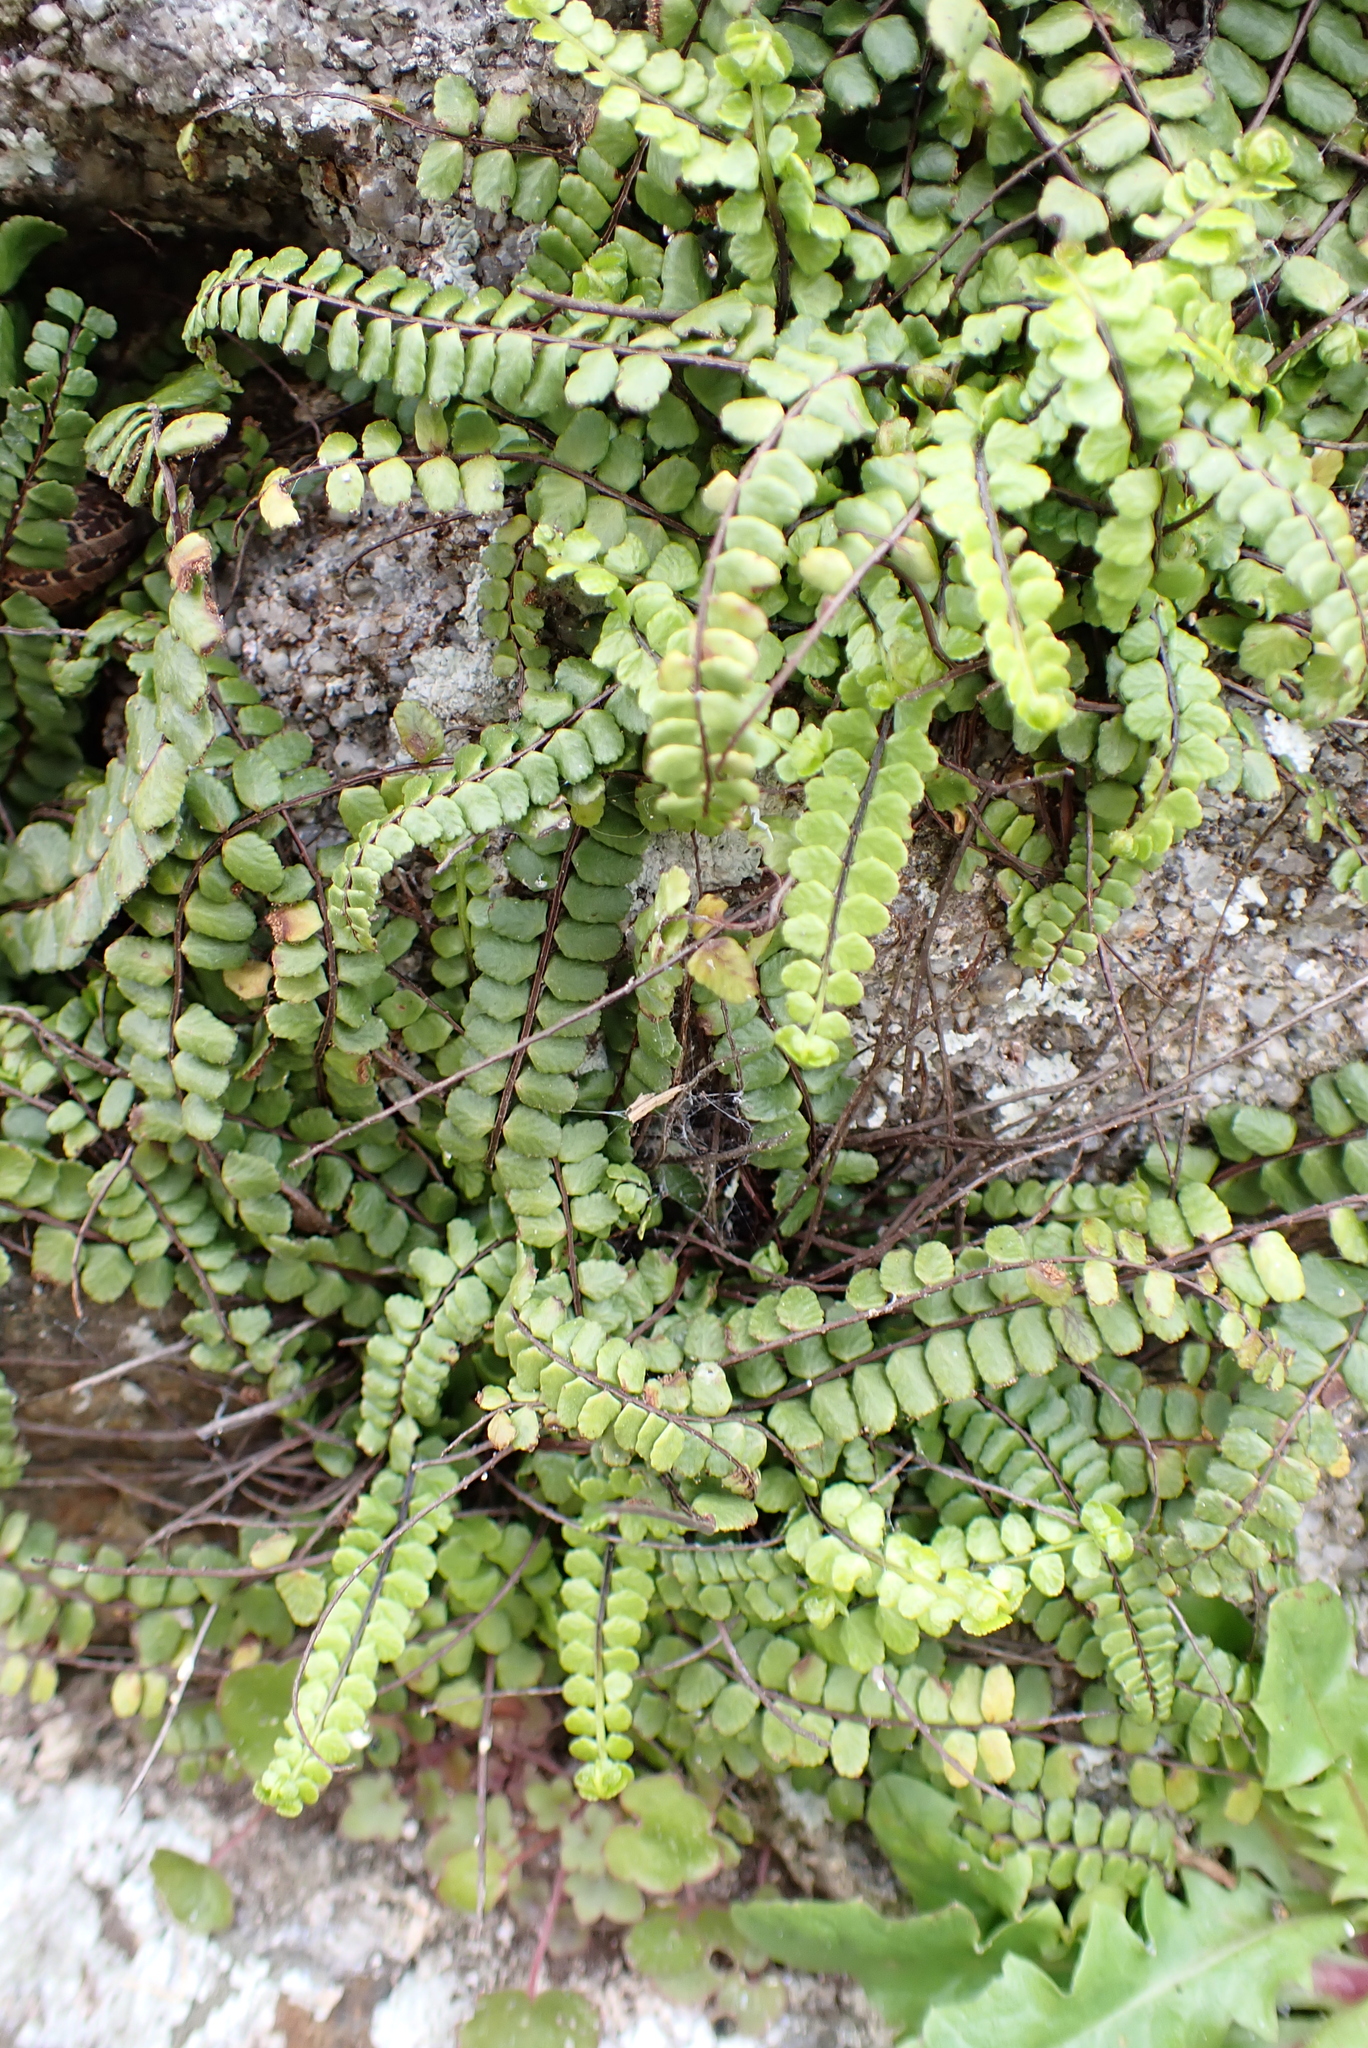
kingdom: Plantae
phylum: Tracheophyta
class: Polypodiopsida
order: Polypodiales
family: Aspleniaceae
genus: Asplenium
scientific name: Asplenium trichomanes
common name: Maidenhair spleenwort
